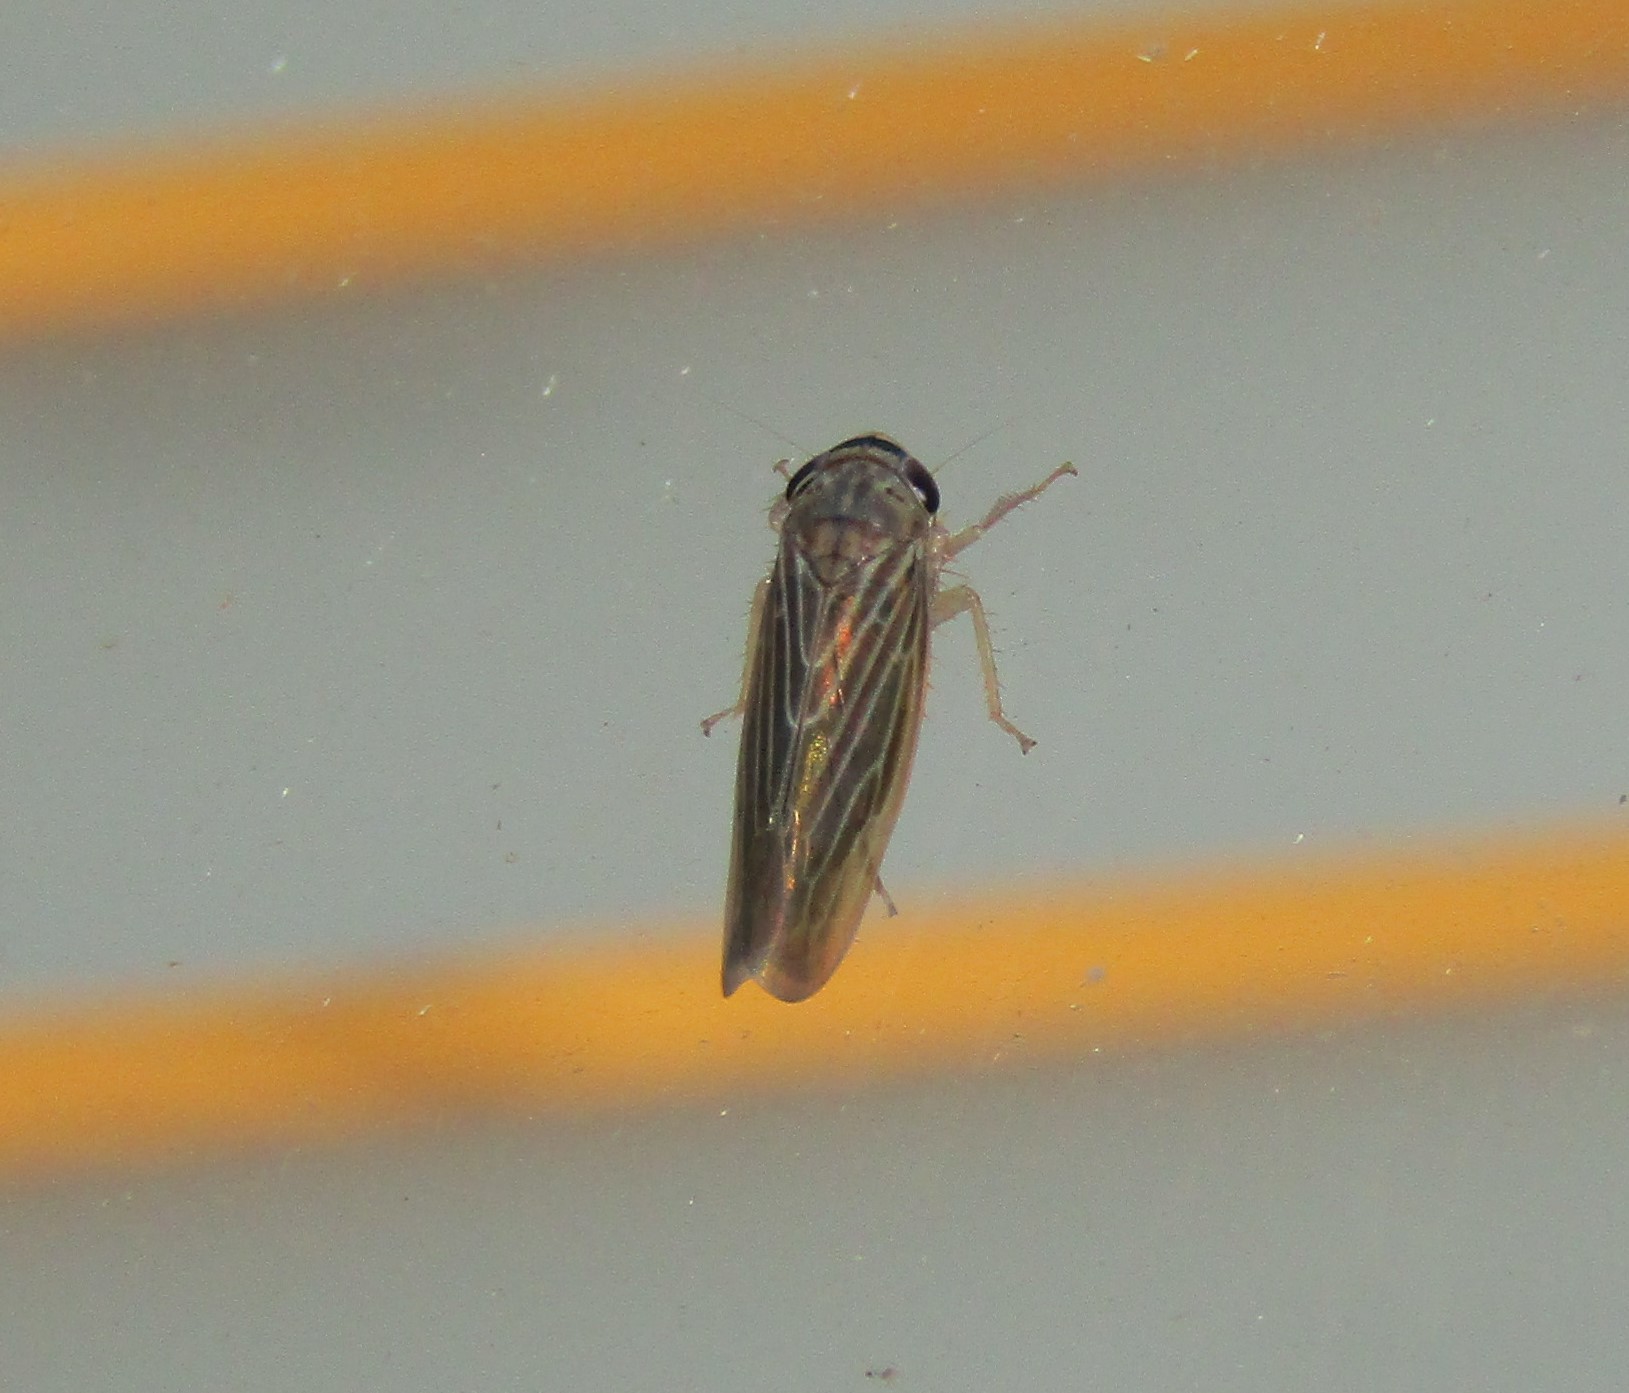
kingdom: Animalia
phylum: Arthropoda
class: Insecta
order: Hemiptera
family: Cicadellidae
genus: Chlorotettix
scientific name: Chlorotettix necopinus
